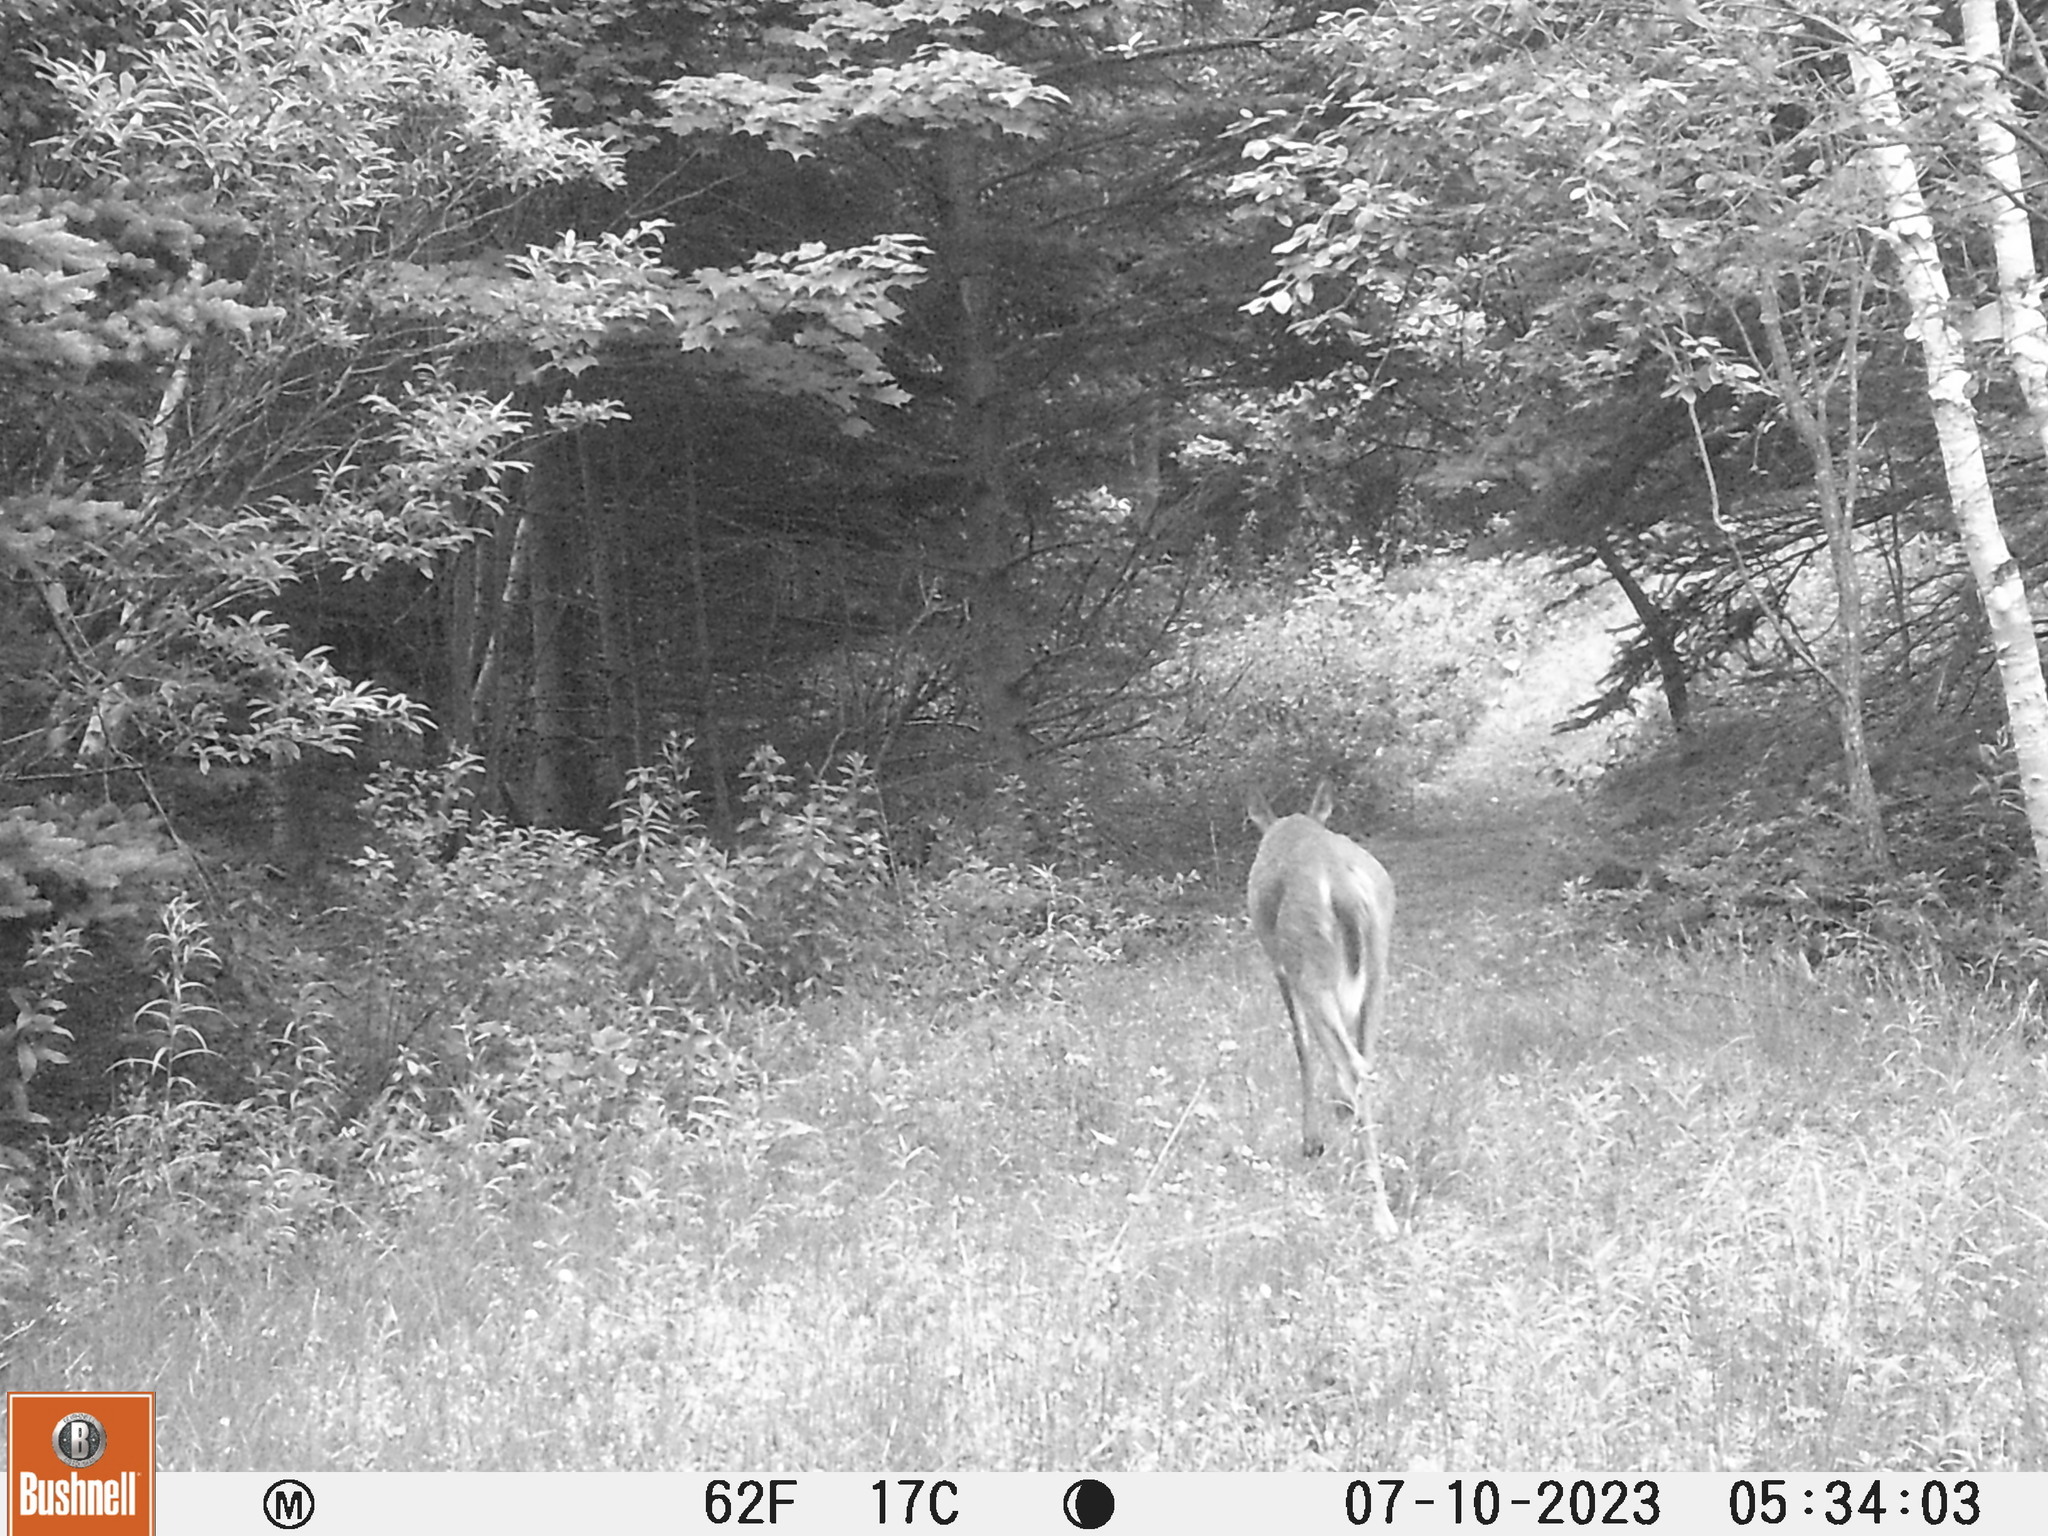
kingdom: Animalia
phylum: Chordata
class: Mammalia
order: Artiodactyla
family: Cervidae
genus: Odocoileus
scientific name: Odocoileus virginianus
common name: White-tailed deer
